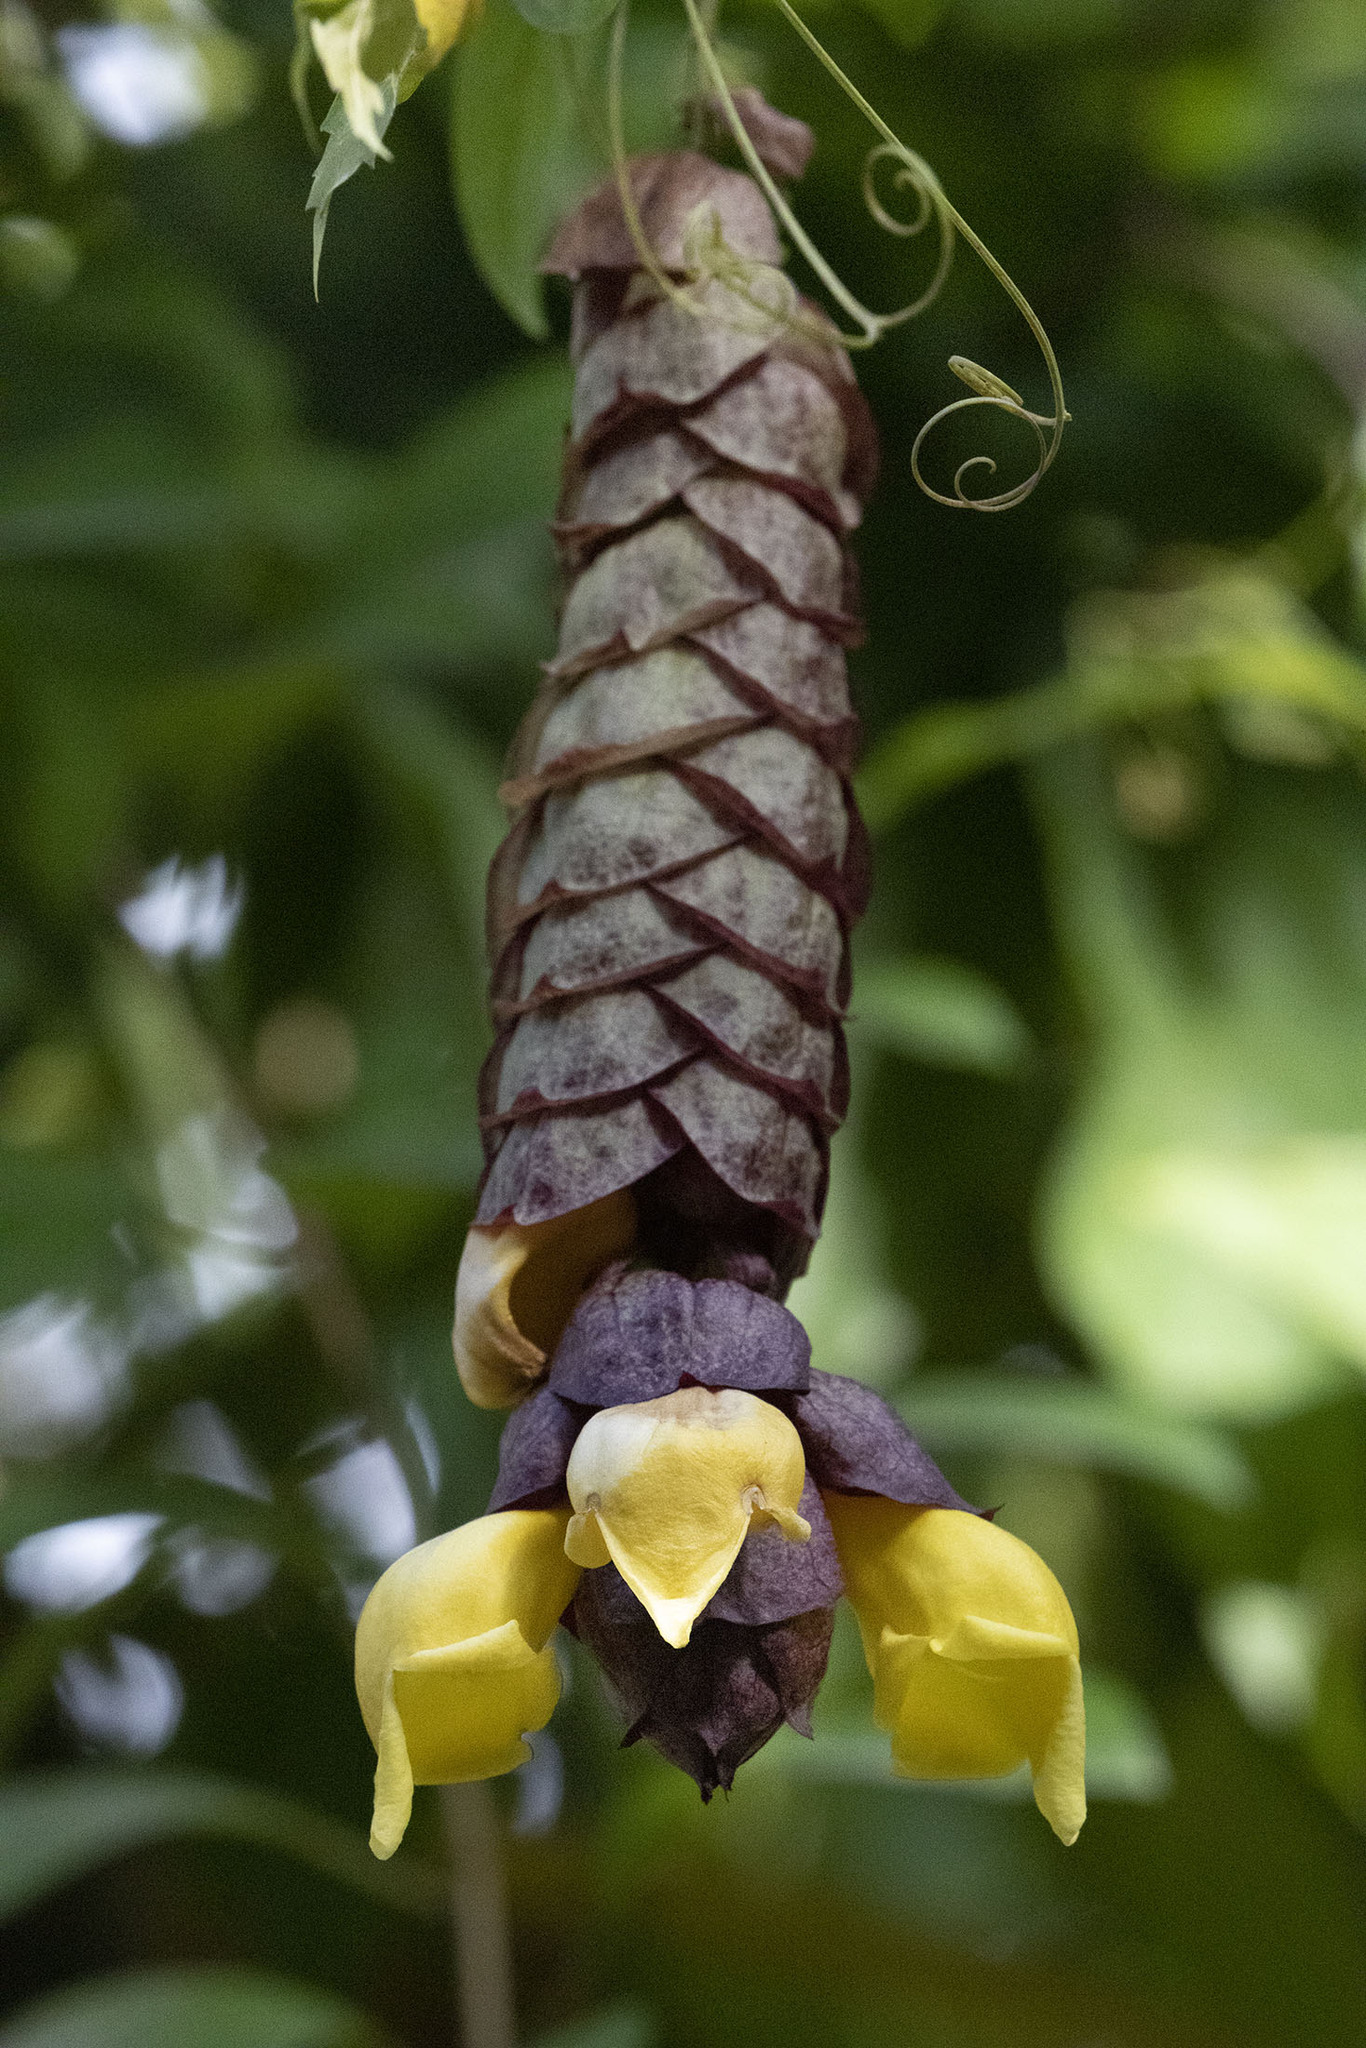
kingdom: Plantae
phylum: Tracheophyta
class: Magnoliopsida
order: Lamiales
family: Lamiaceae
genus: Gmelina
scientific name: Gmelina philippensis
